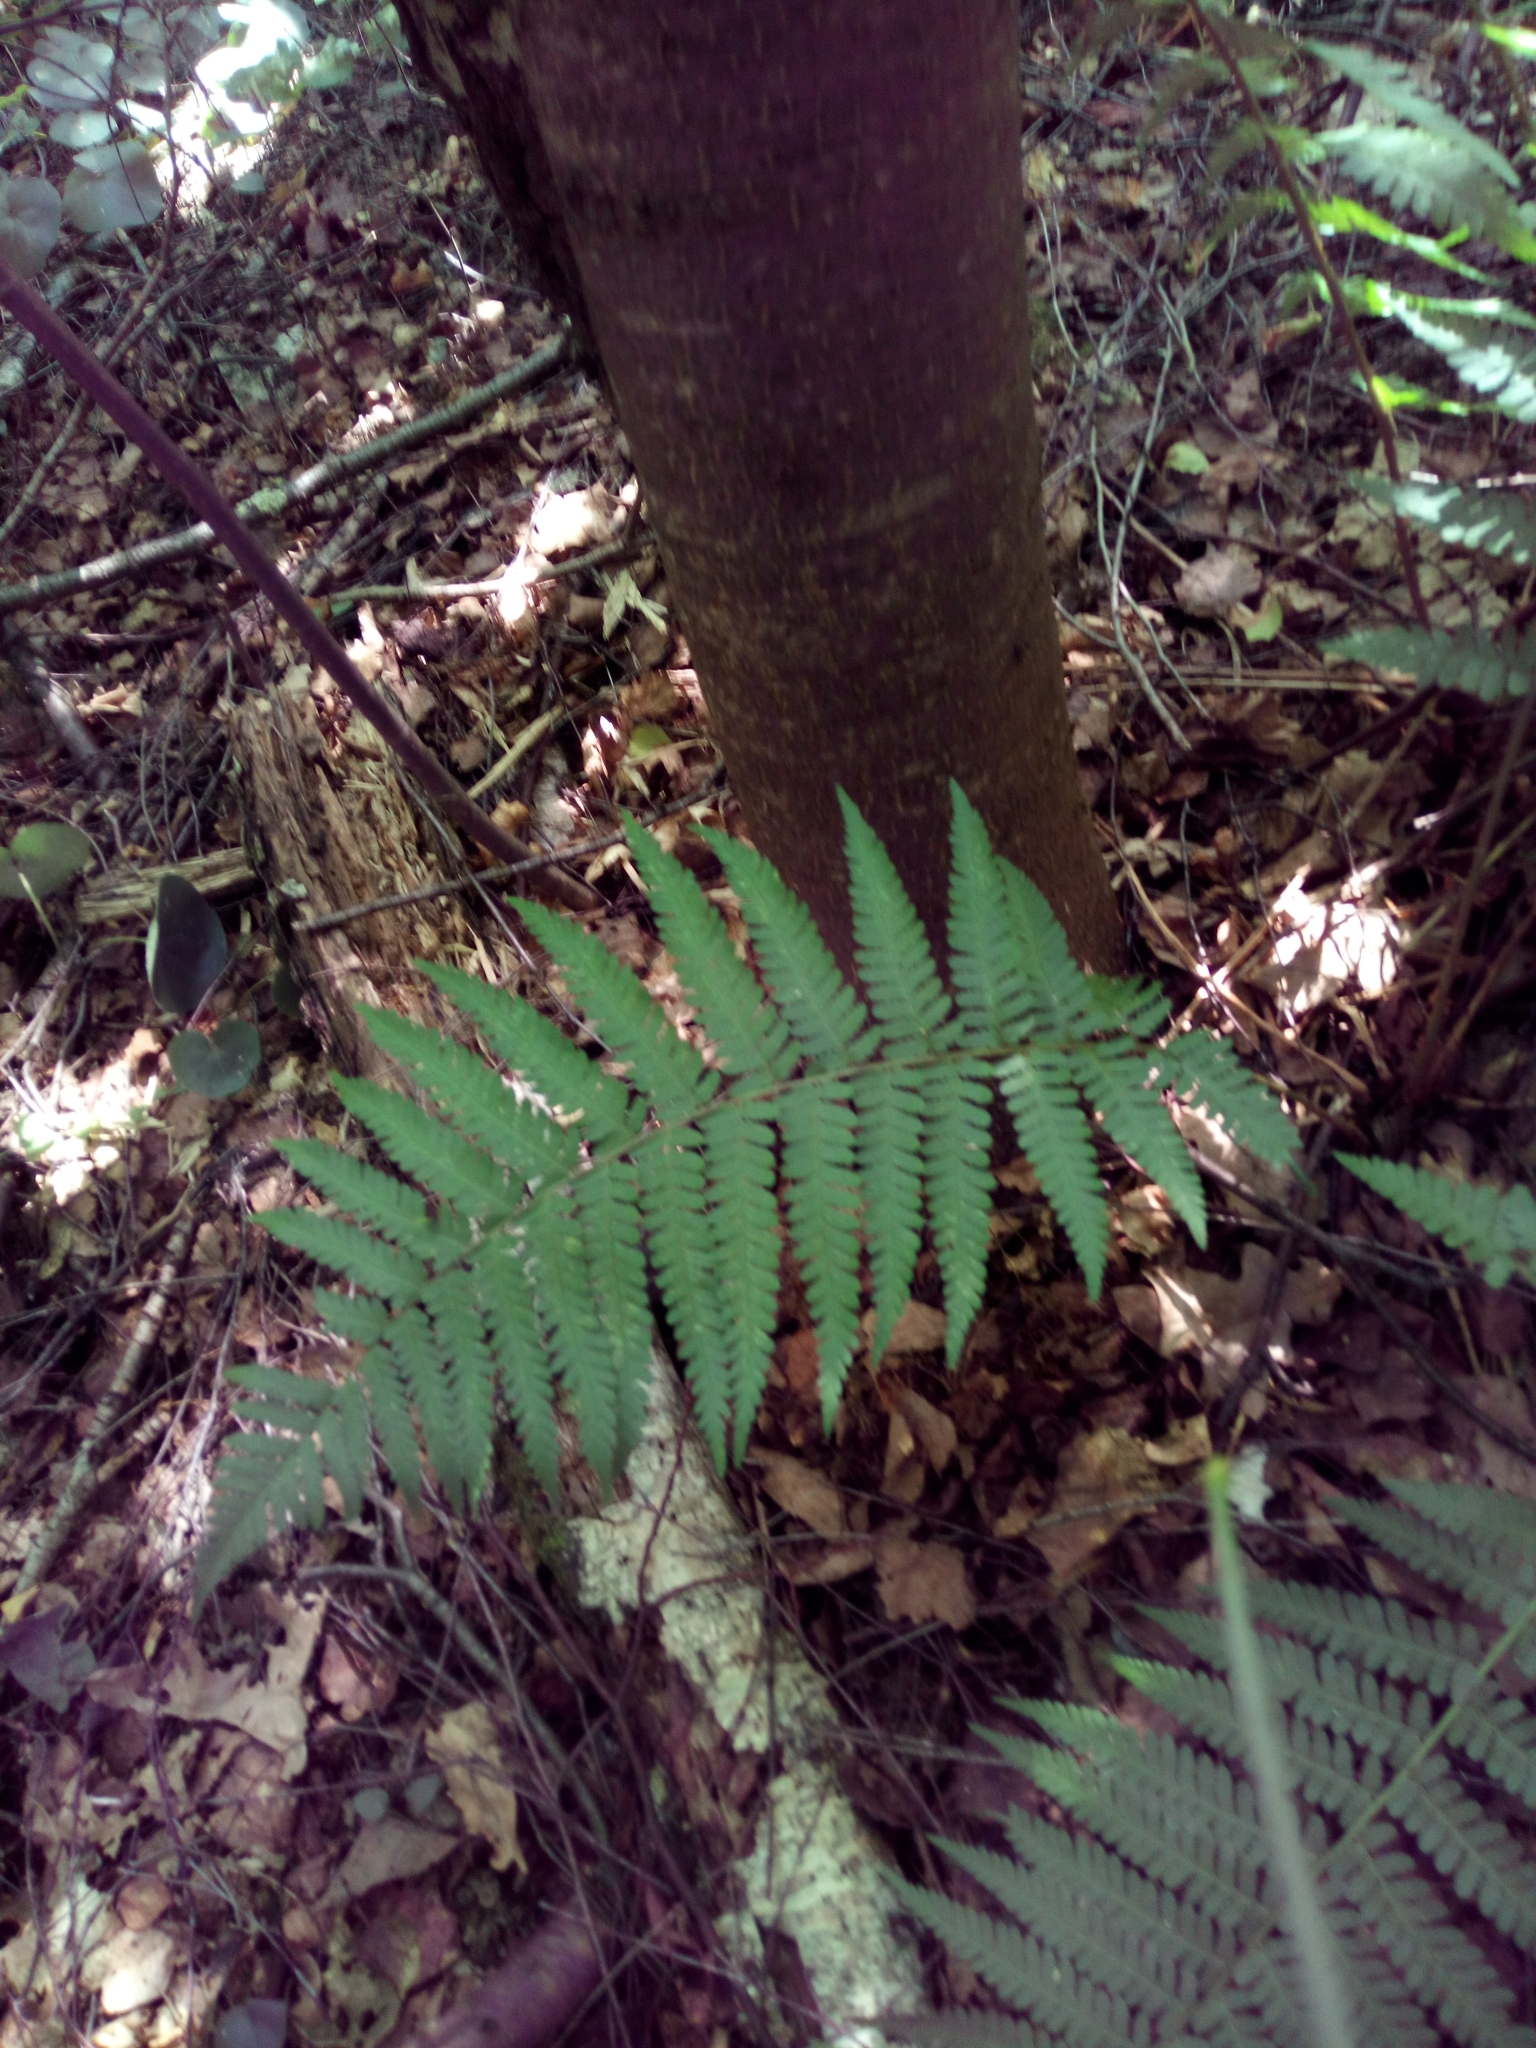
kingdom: Plantae
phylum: Tracheophyta
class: Polypodiopsida
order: Polypodiales
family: Dryopteridaceae
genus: Dryopteris
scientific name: Dryopteris filix-mas
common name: Male fern
